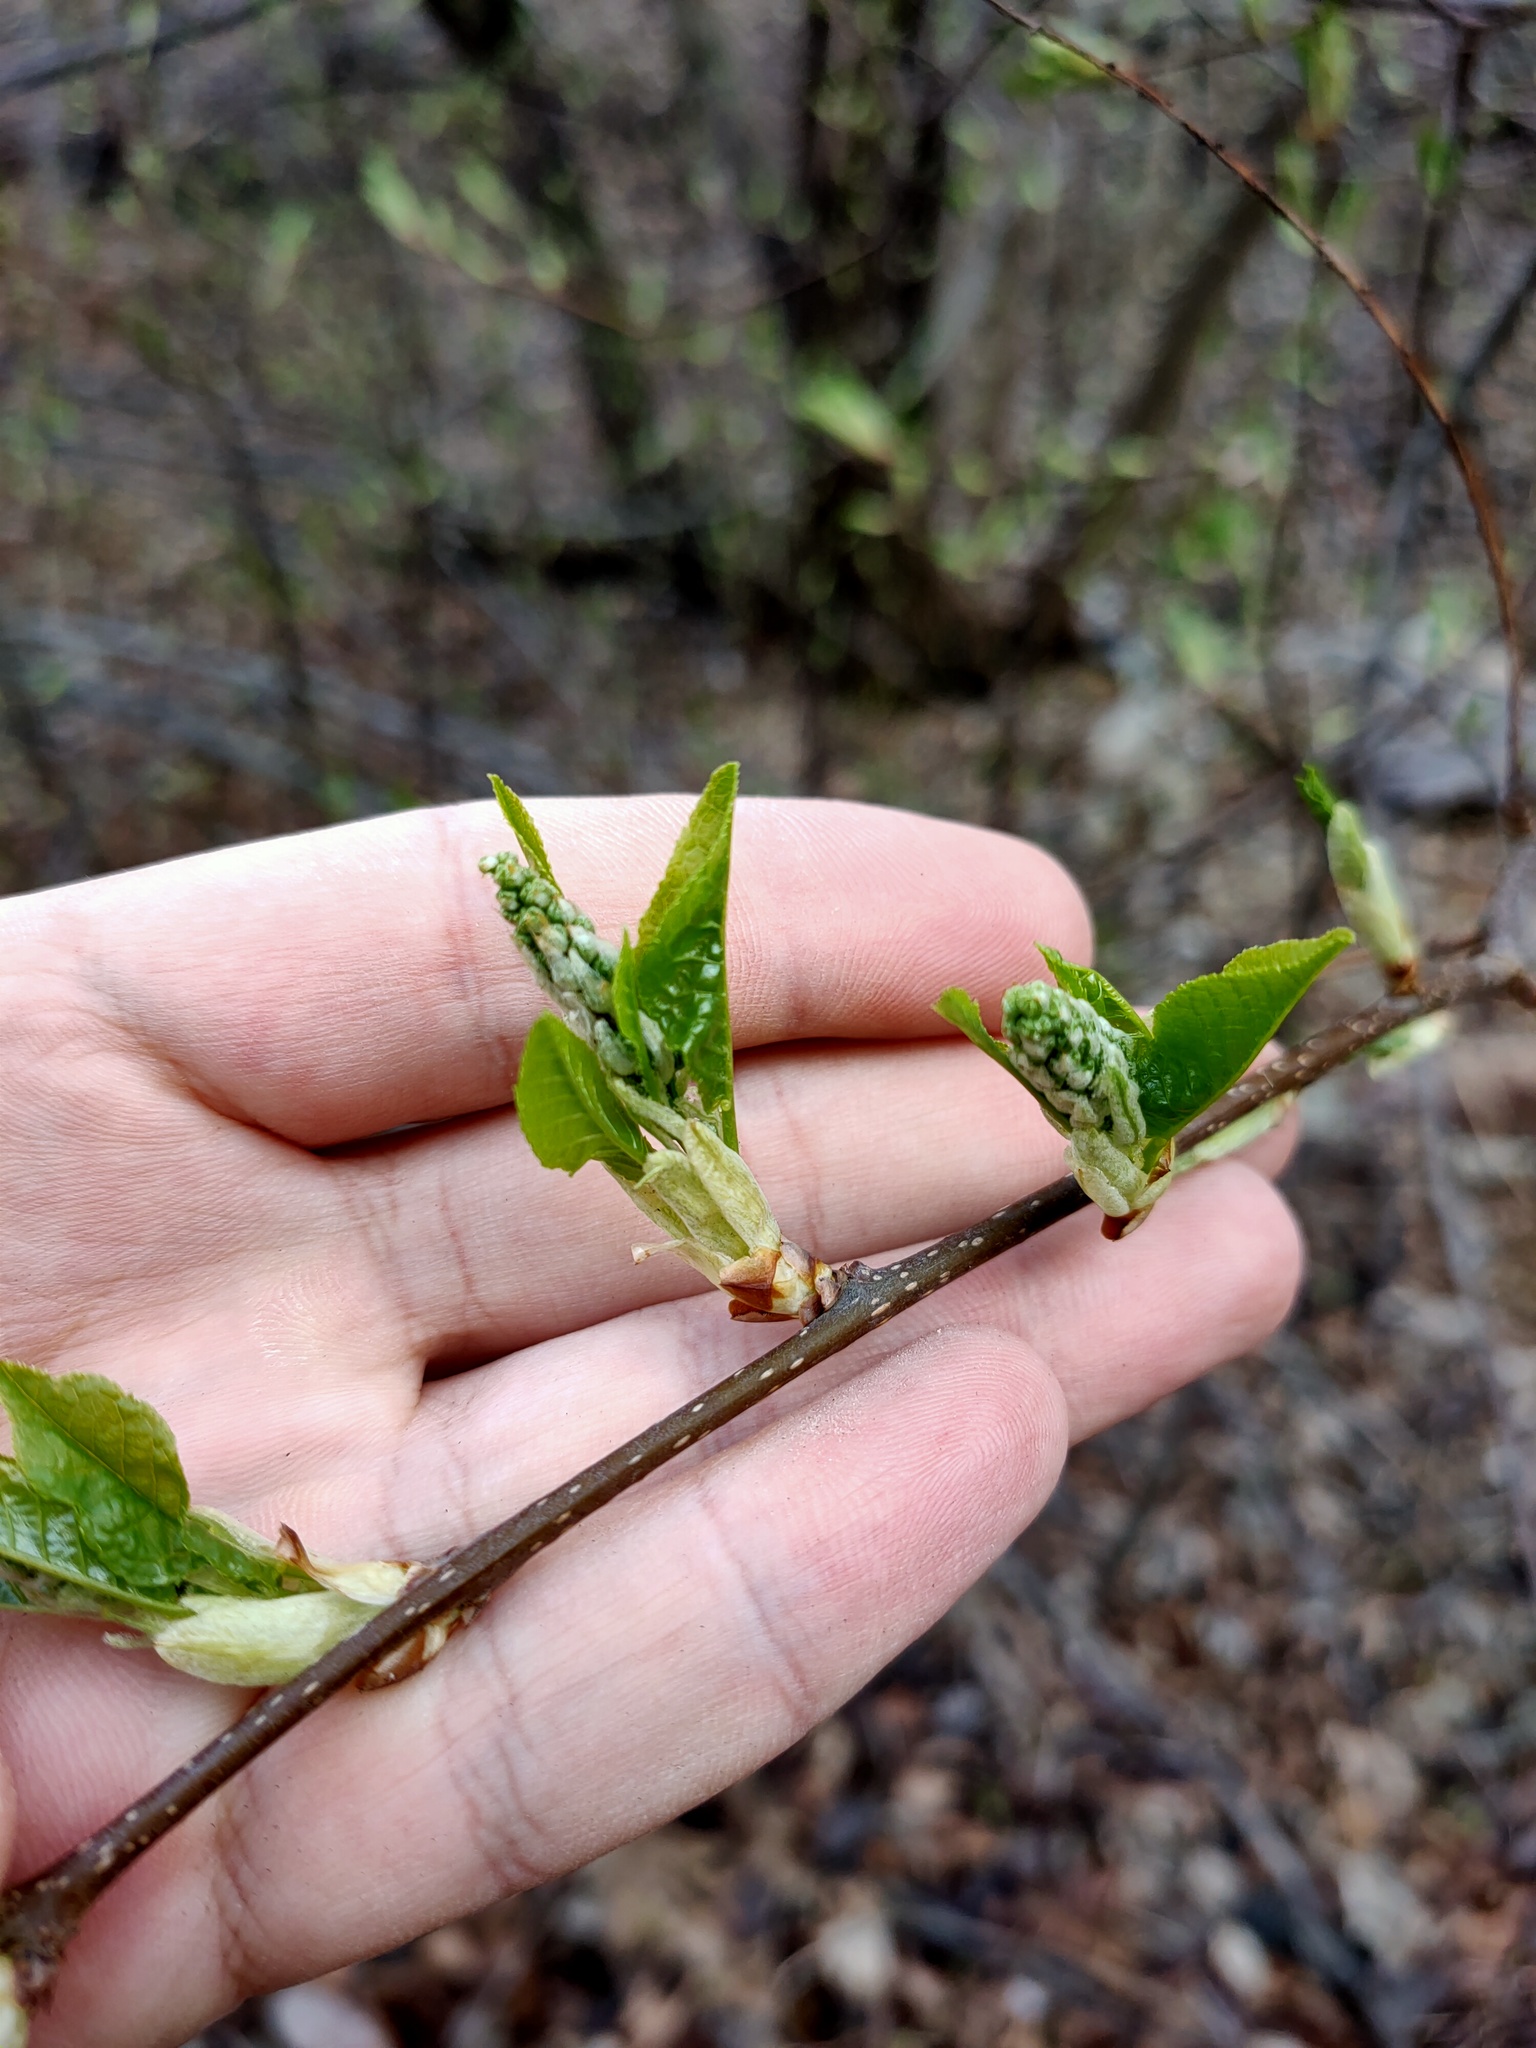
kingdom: Plantae
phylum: Tracheophyta
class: Magnoliopsida
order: Rosales
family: Rosaceae
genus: Prunus
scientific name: Prunus padus
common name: Bird cherry
